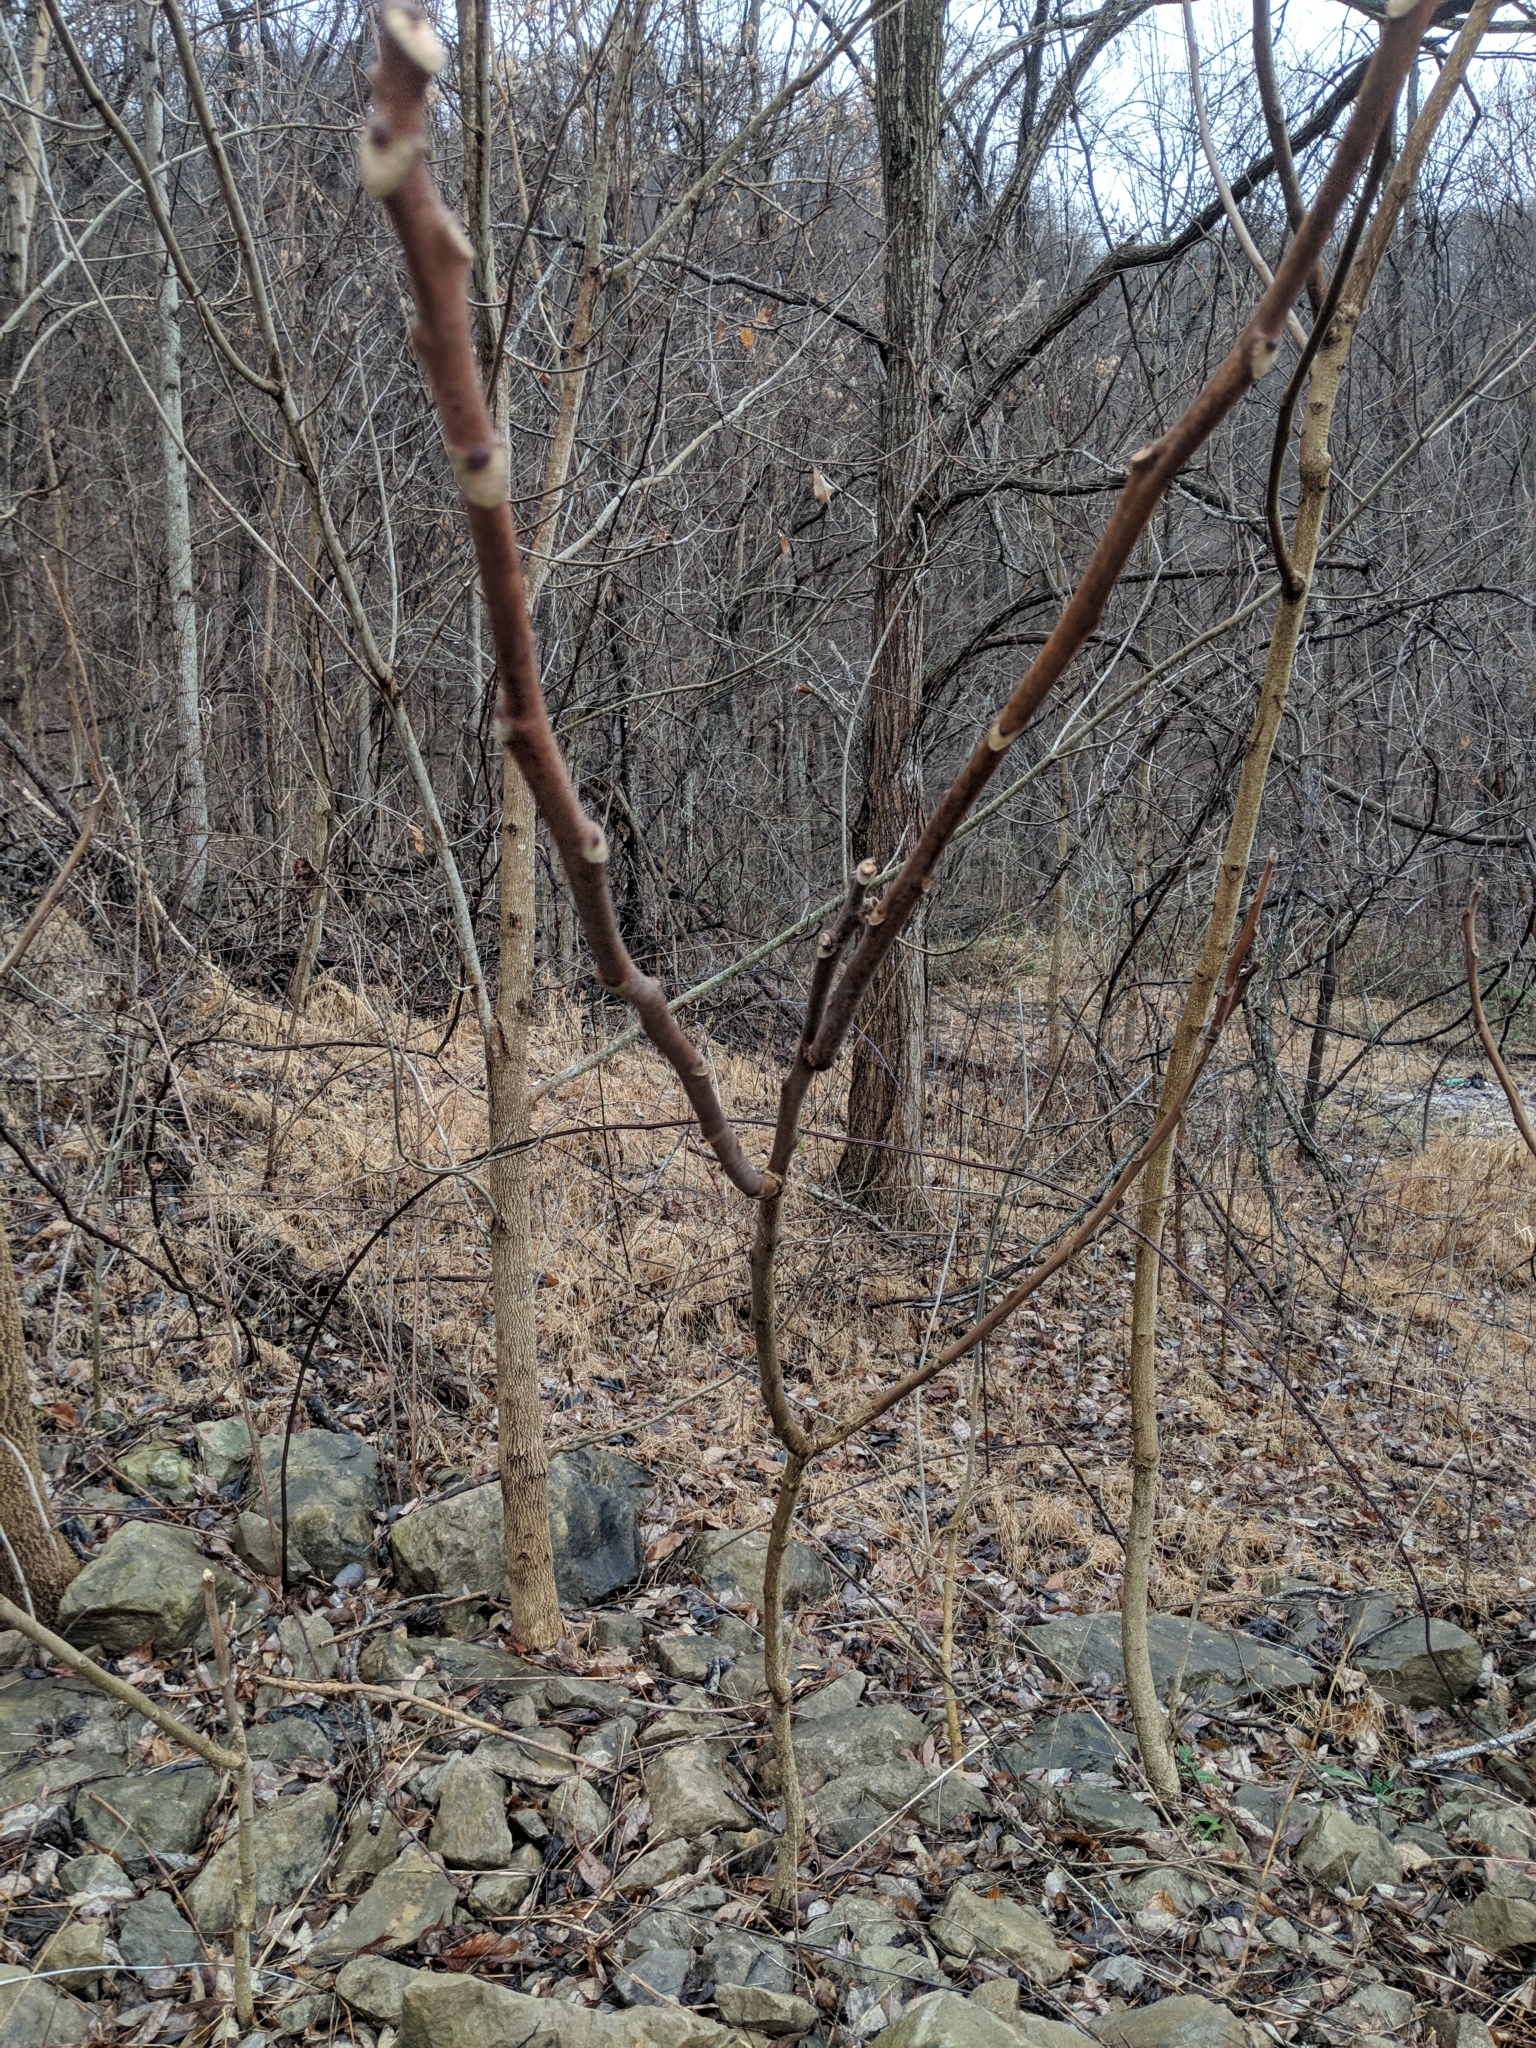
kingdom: Plantae
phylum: Tracheophyta
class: Magnoliopsida
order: Sapindales
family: Simaroubaceae
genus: Ailanthus
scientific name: Ailanthus altissima
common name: Tree-of-heaven
